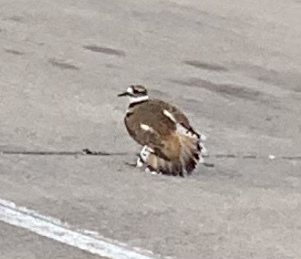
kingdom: Animalia
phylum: Chordata
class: Aves
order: Charadriiformes
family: Charadriidae
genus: Charadrius
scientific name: Charadrius vociferus
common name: Killdeer
